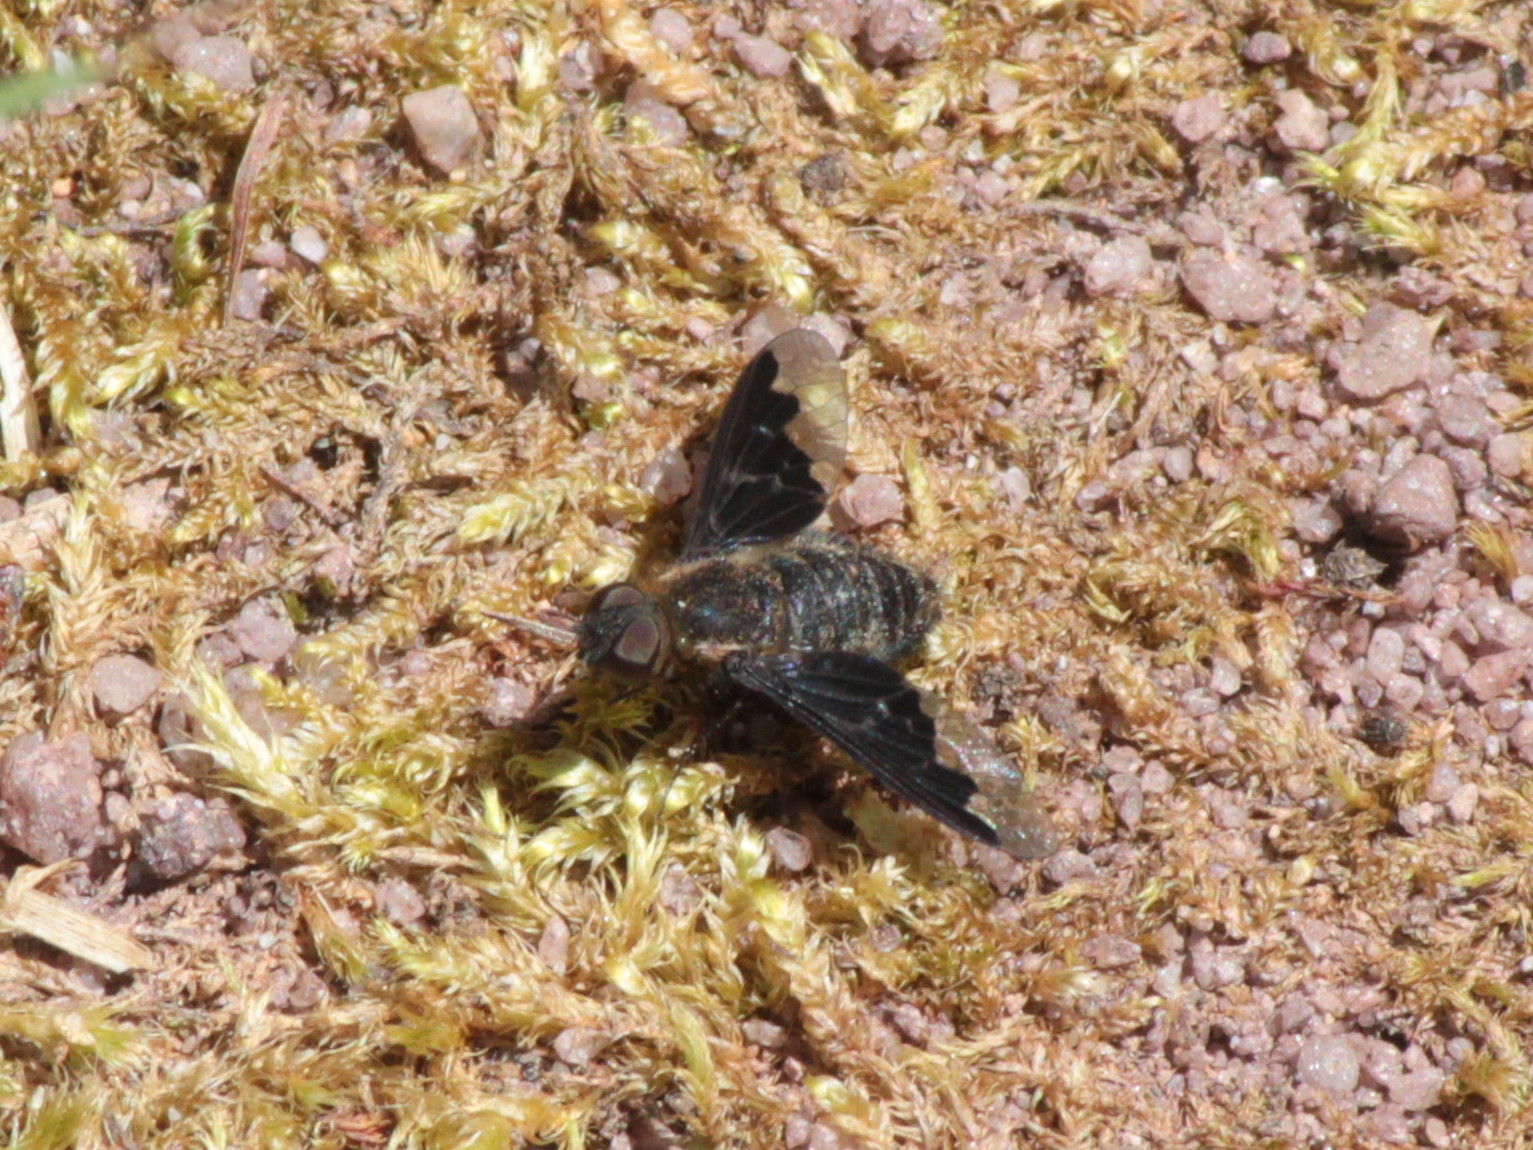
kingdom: Animalia
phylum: Arthropoda
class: Insecta
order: Diptera
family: Bombyliidae
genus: Hemipenthes
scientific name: Hemipenthes morioides
